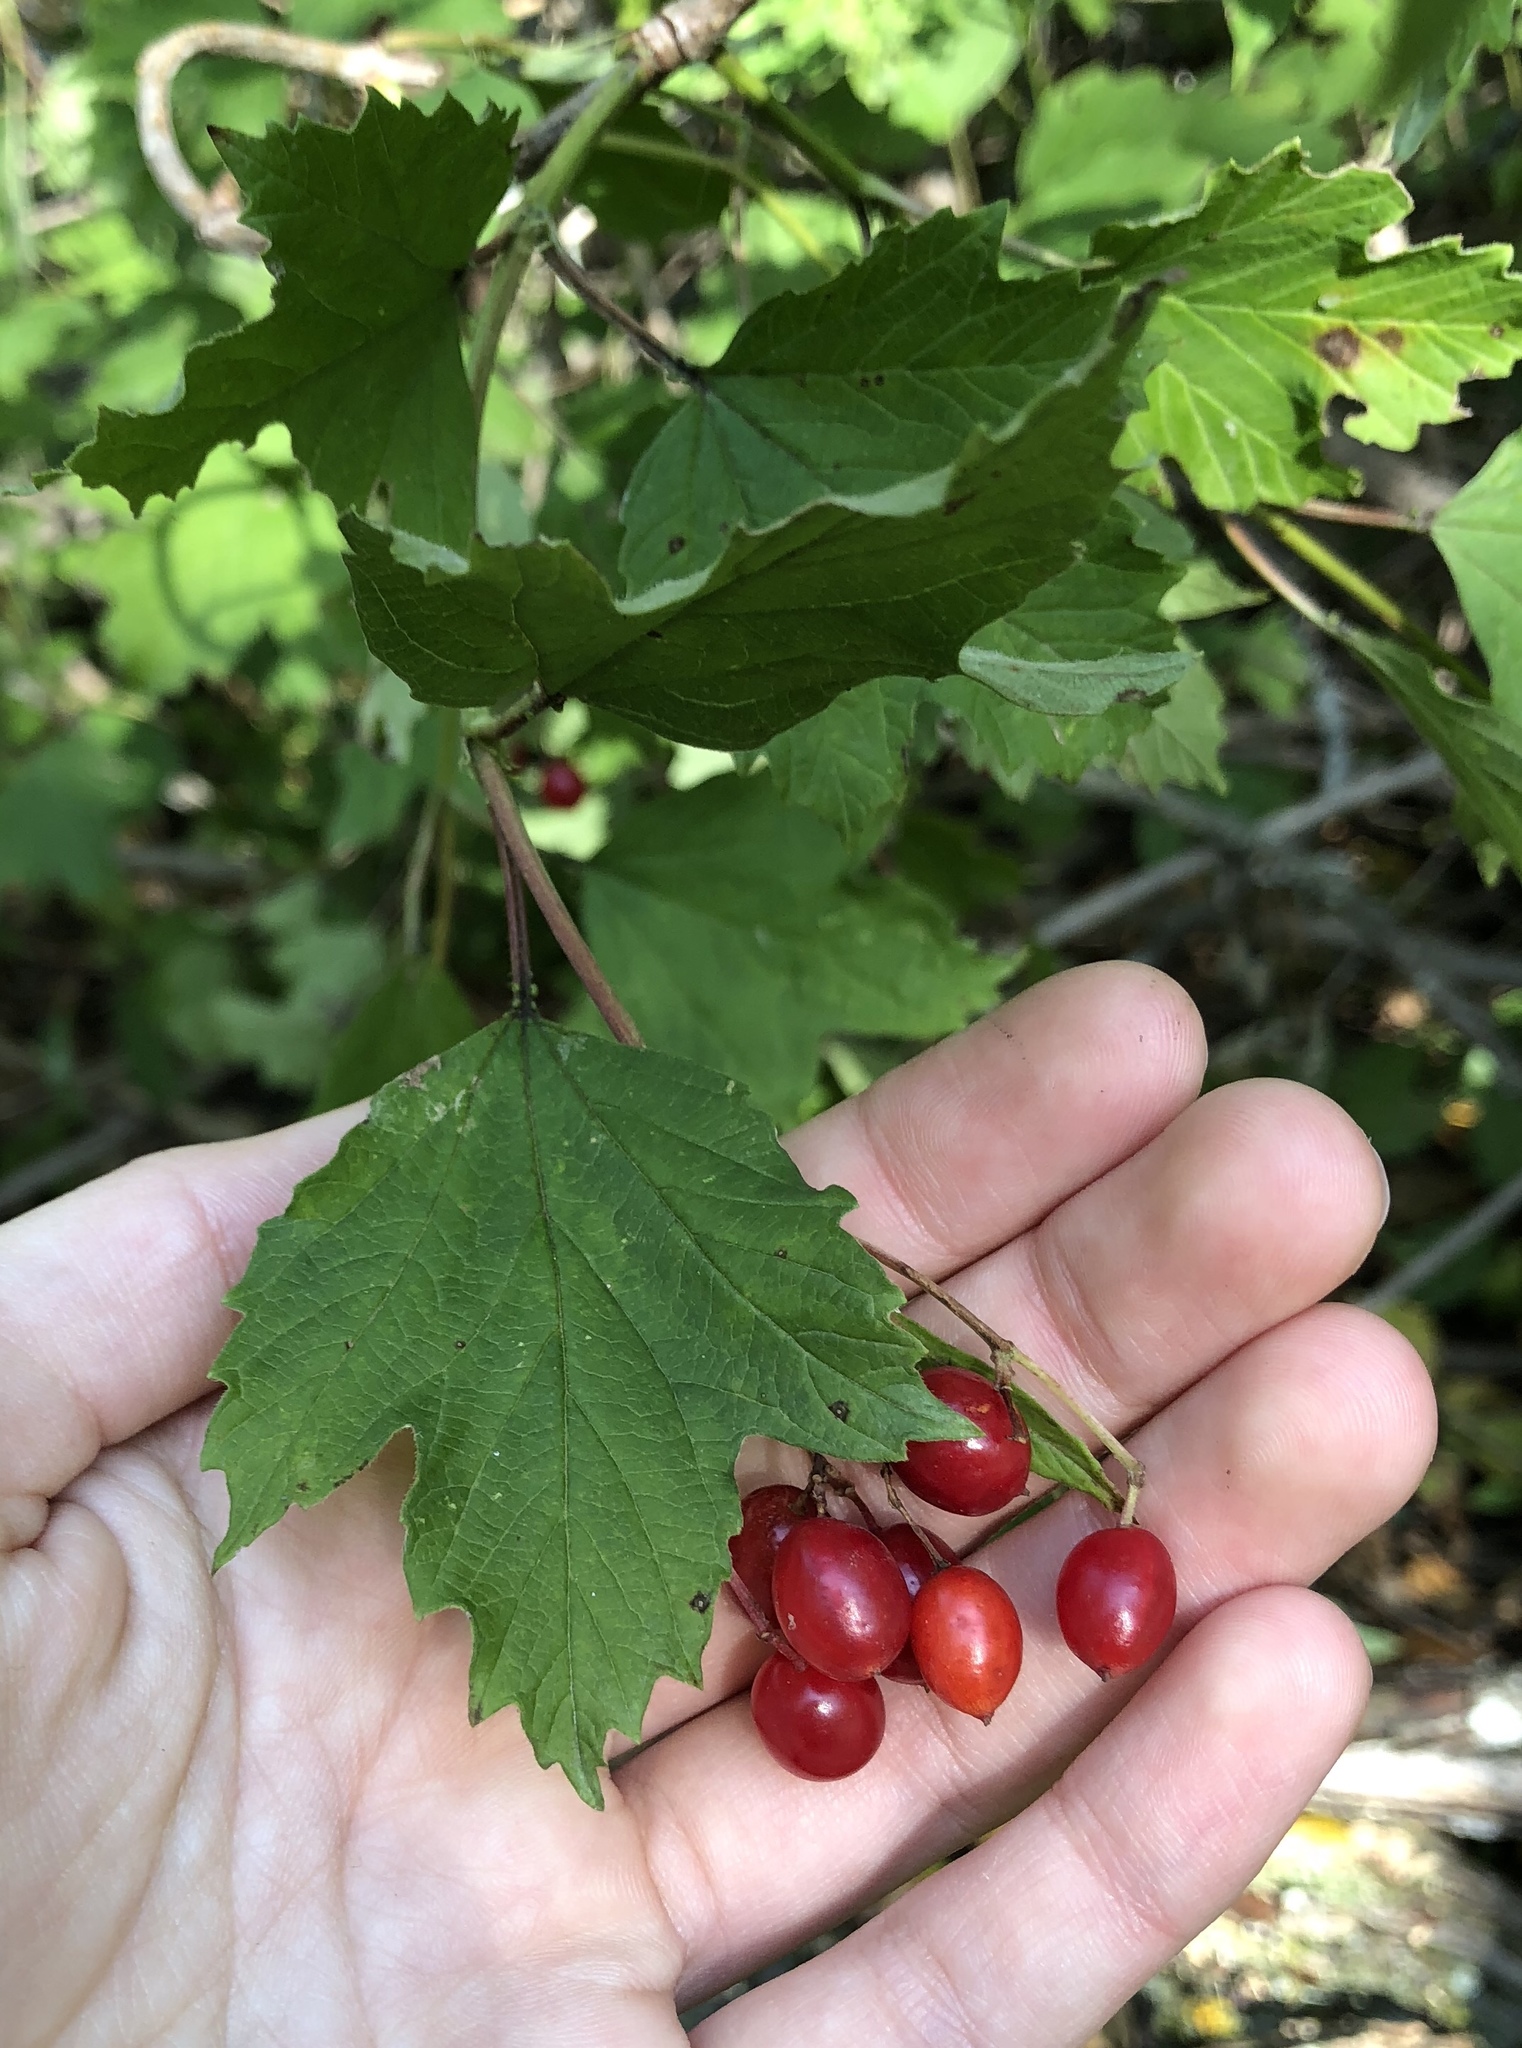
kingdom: Plantae
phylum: Tracheophyta
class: Magnoliopsida
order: Dipsacales
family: Viburnaceae
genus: Viburnum
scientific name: Viburnum opulus
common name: Guelder-rose
